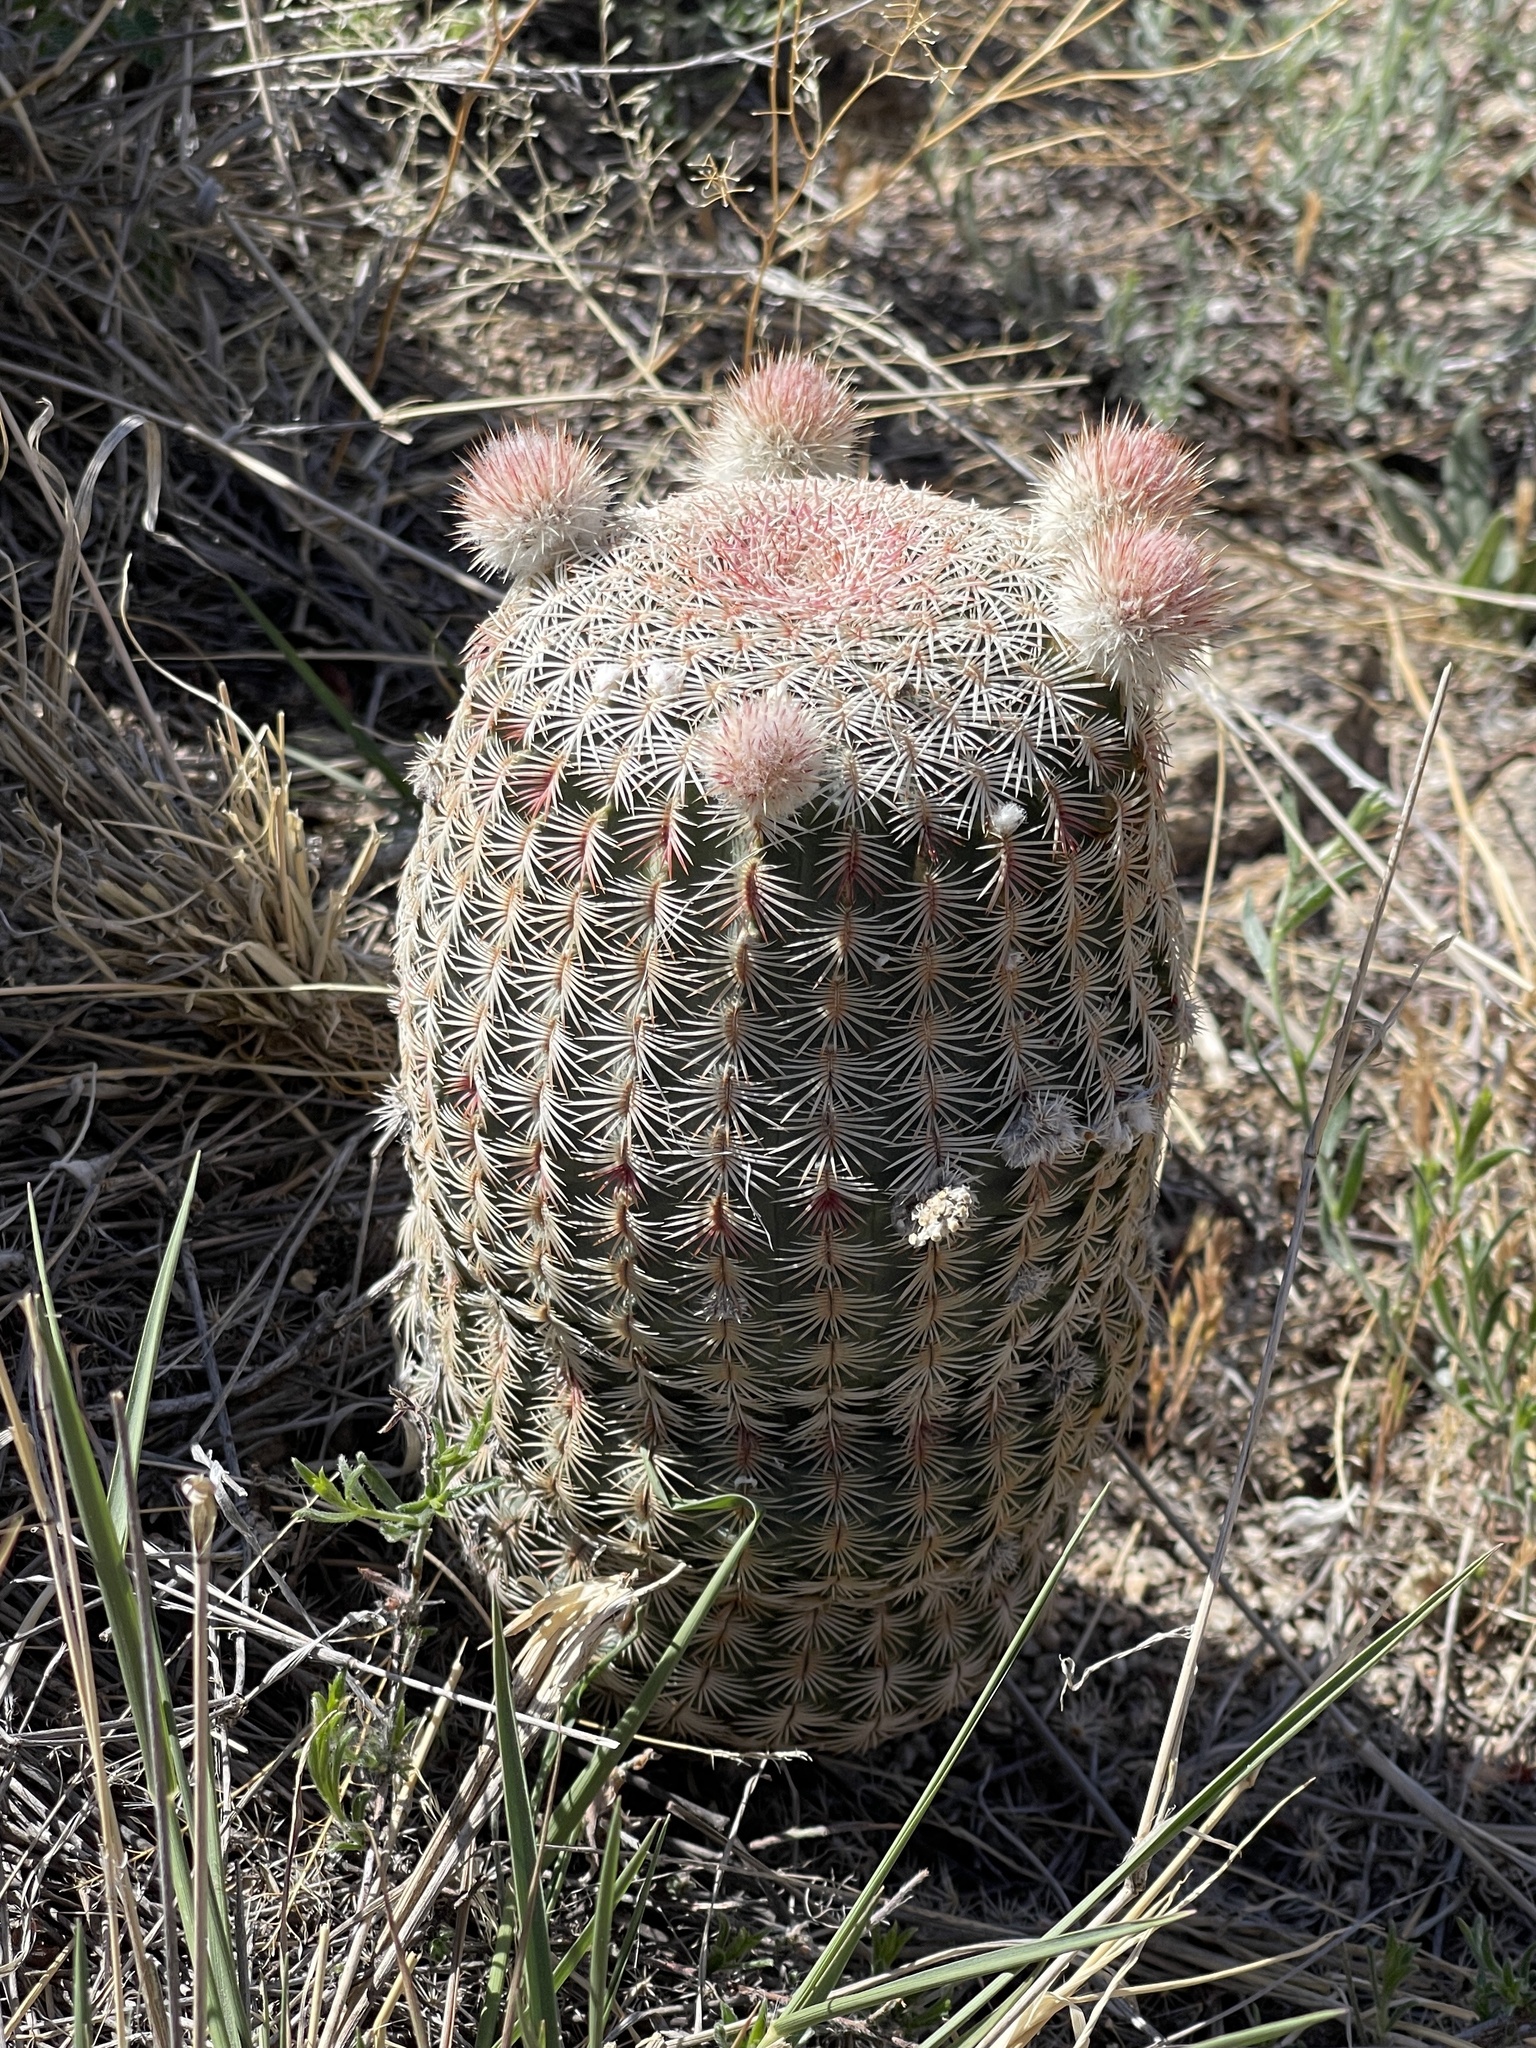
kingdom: Plantae
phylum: Tracheophyta
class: Magnoliopsida
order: Caryophyllales
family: Cactaceae
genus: Echinocereus
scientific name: Echinocereus rigidissimus
